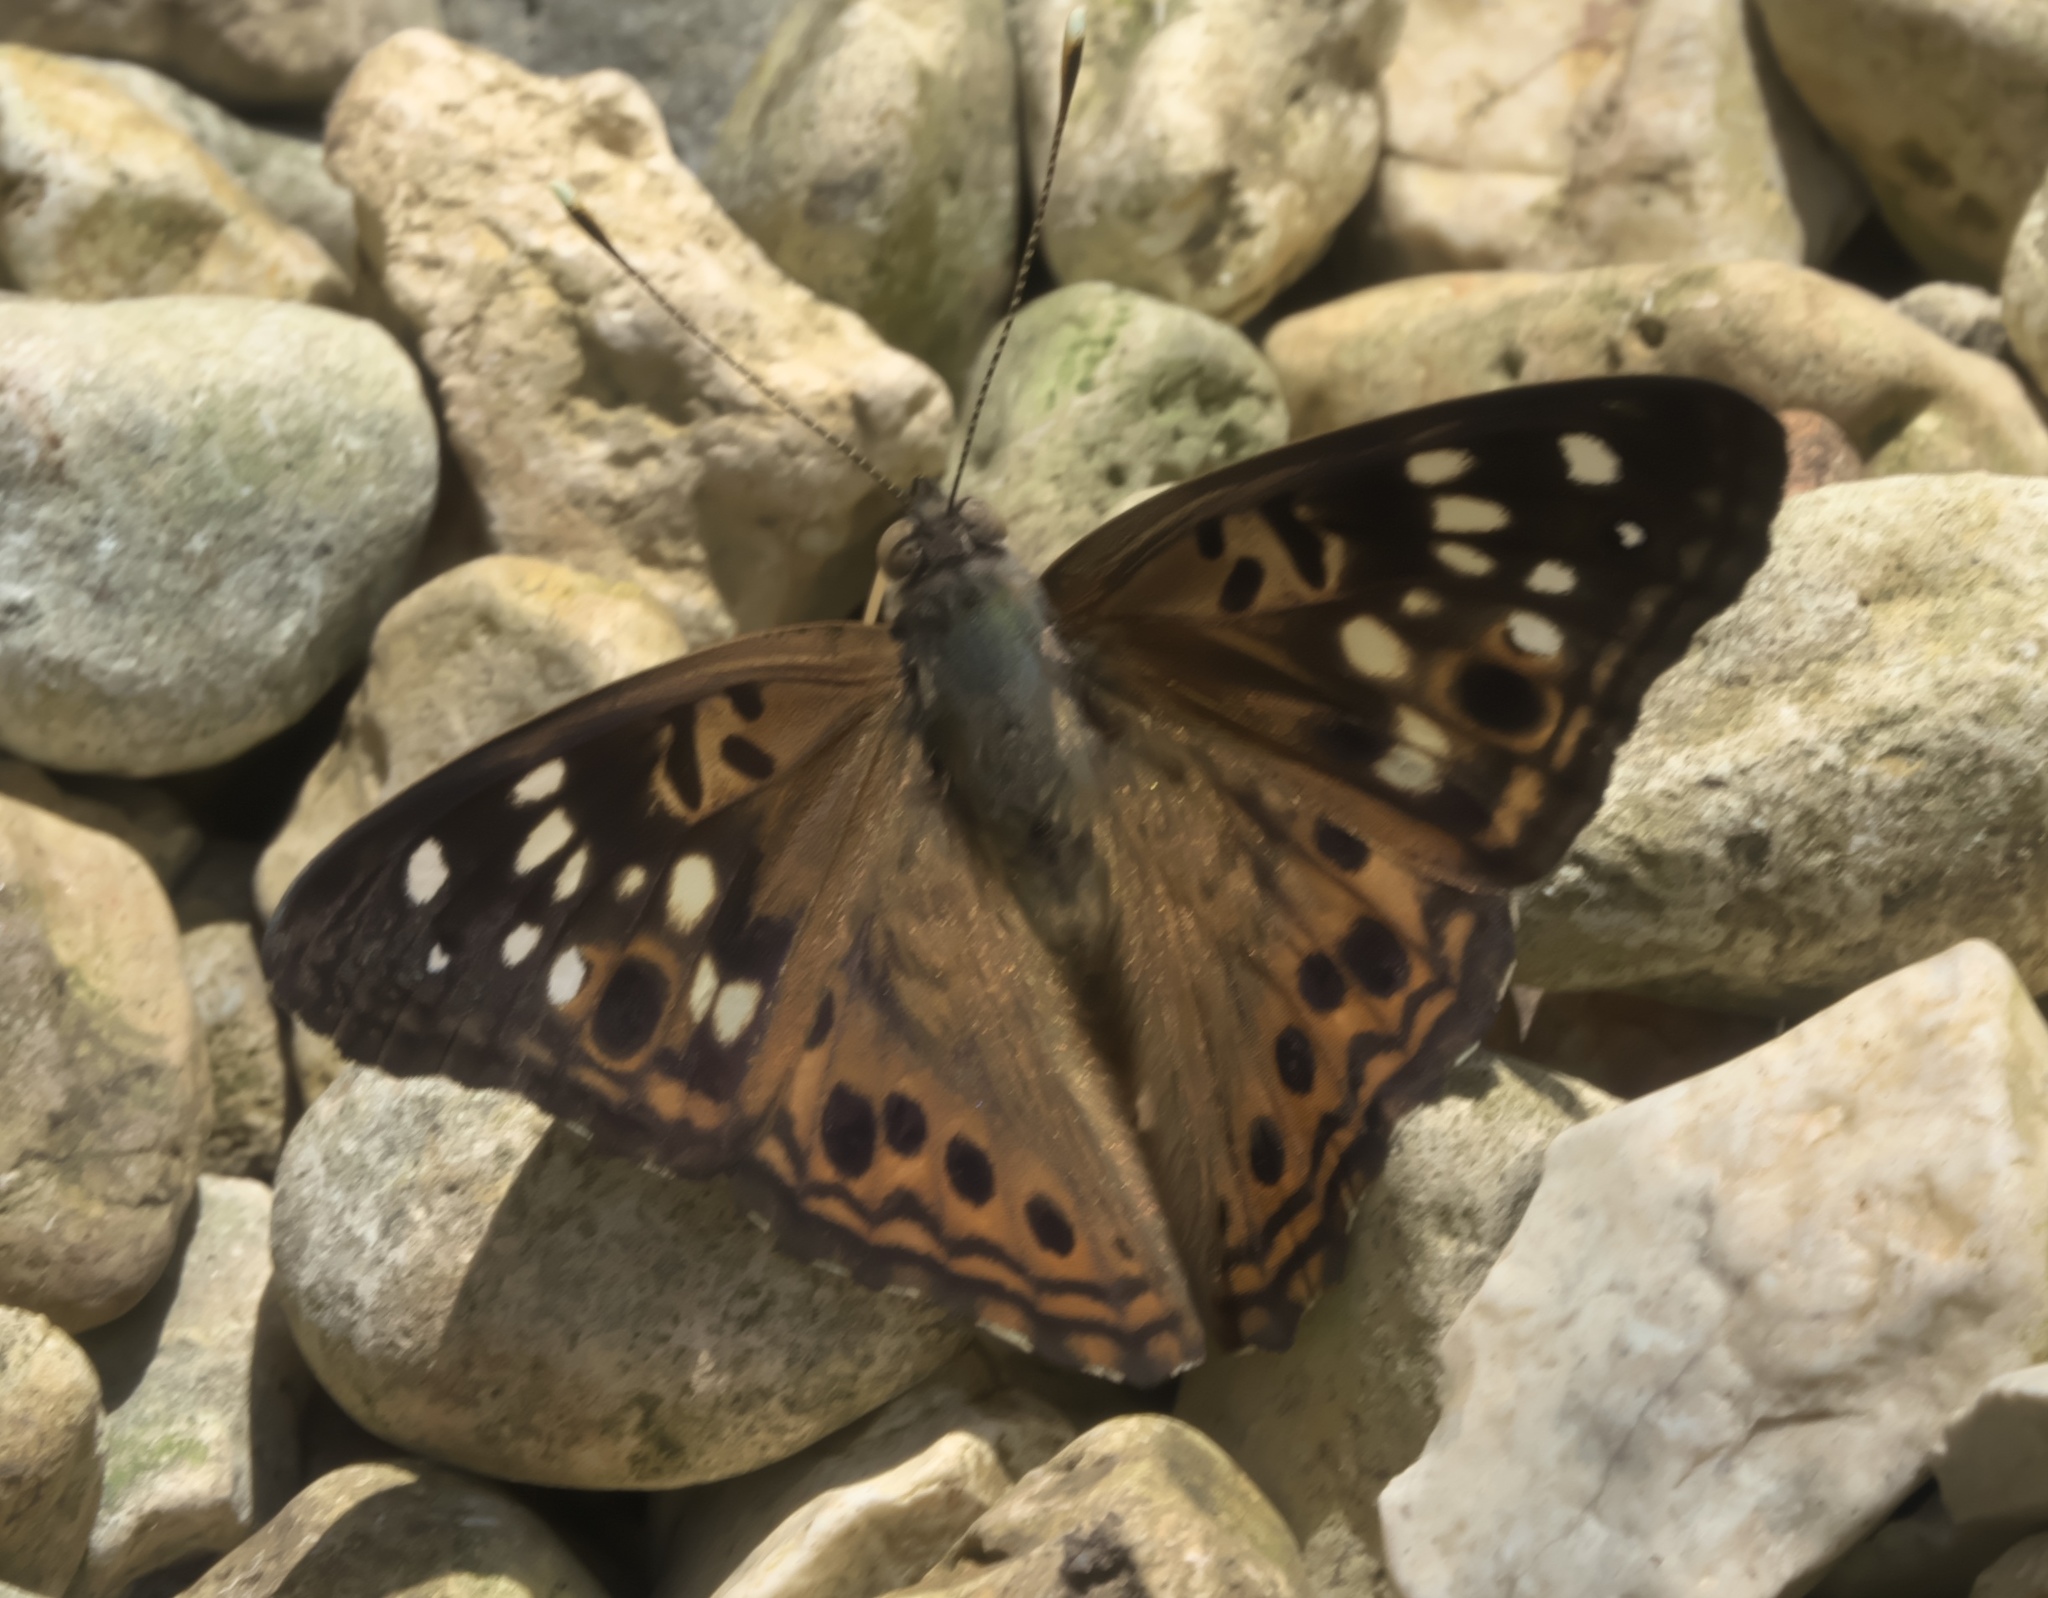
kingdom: Animalia
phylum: Arthropoda
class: Insecta
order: Lepidoptera
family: Nymphalidae
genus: Asterocampa
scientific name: Asterocampa celtis
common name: Hackberry emperor
